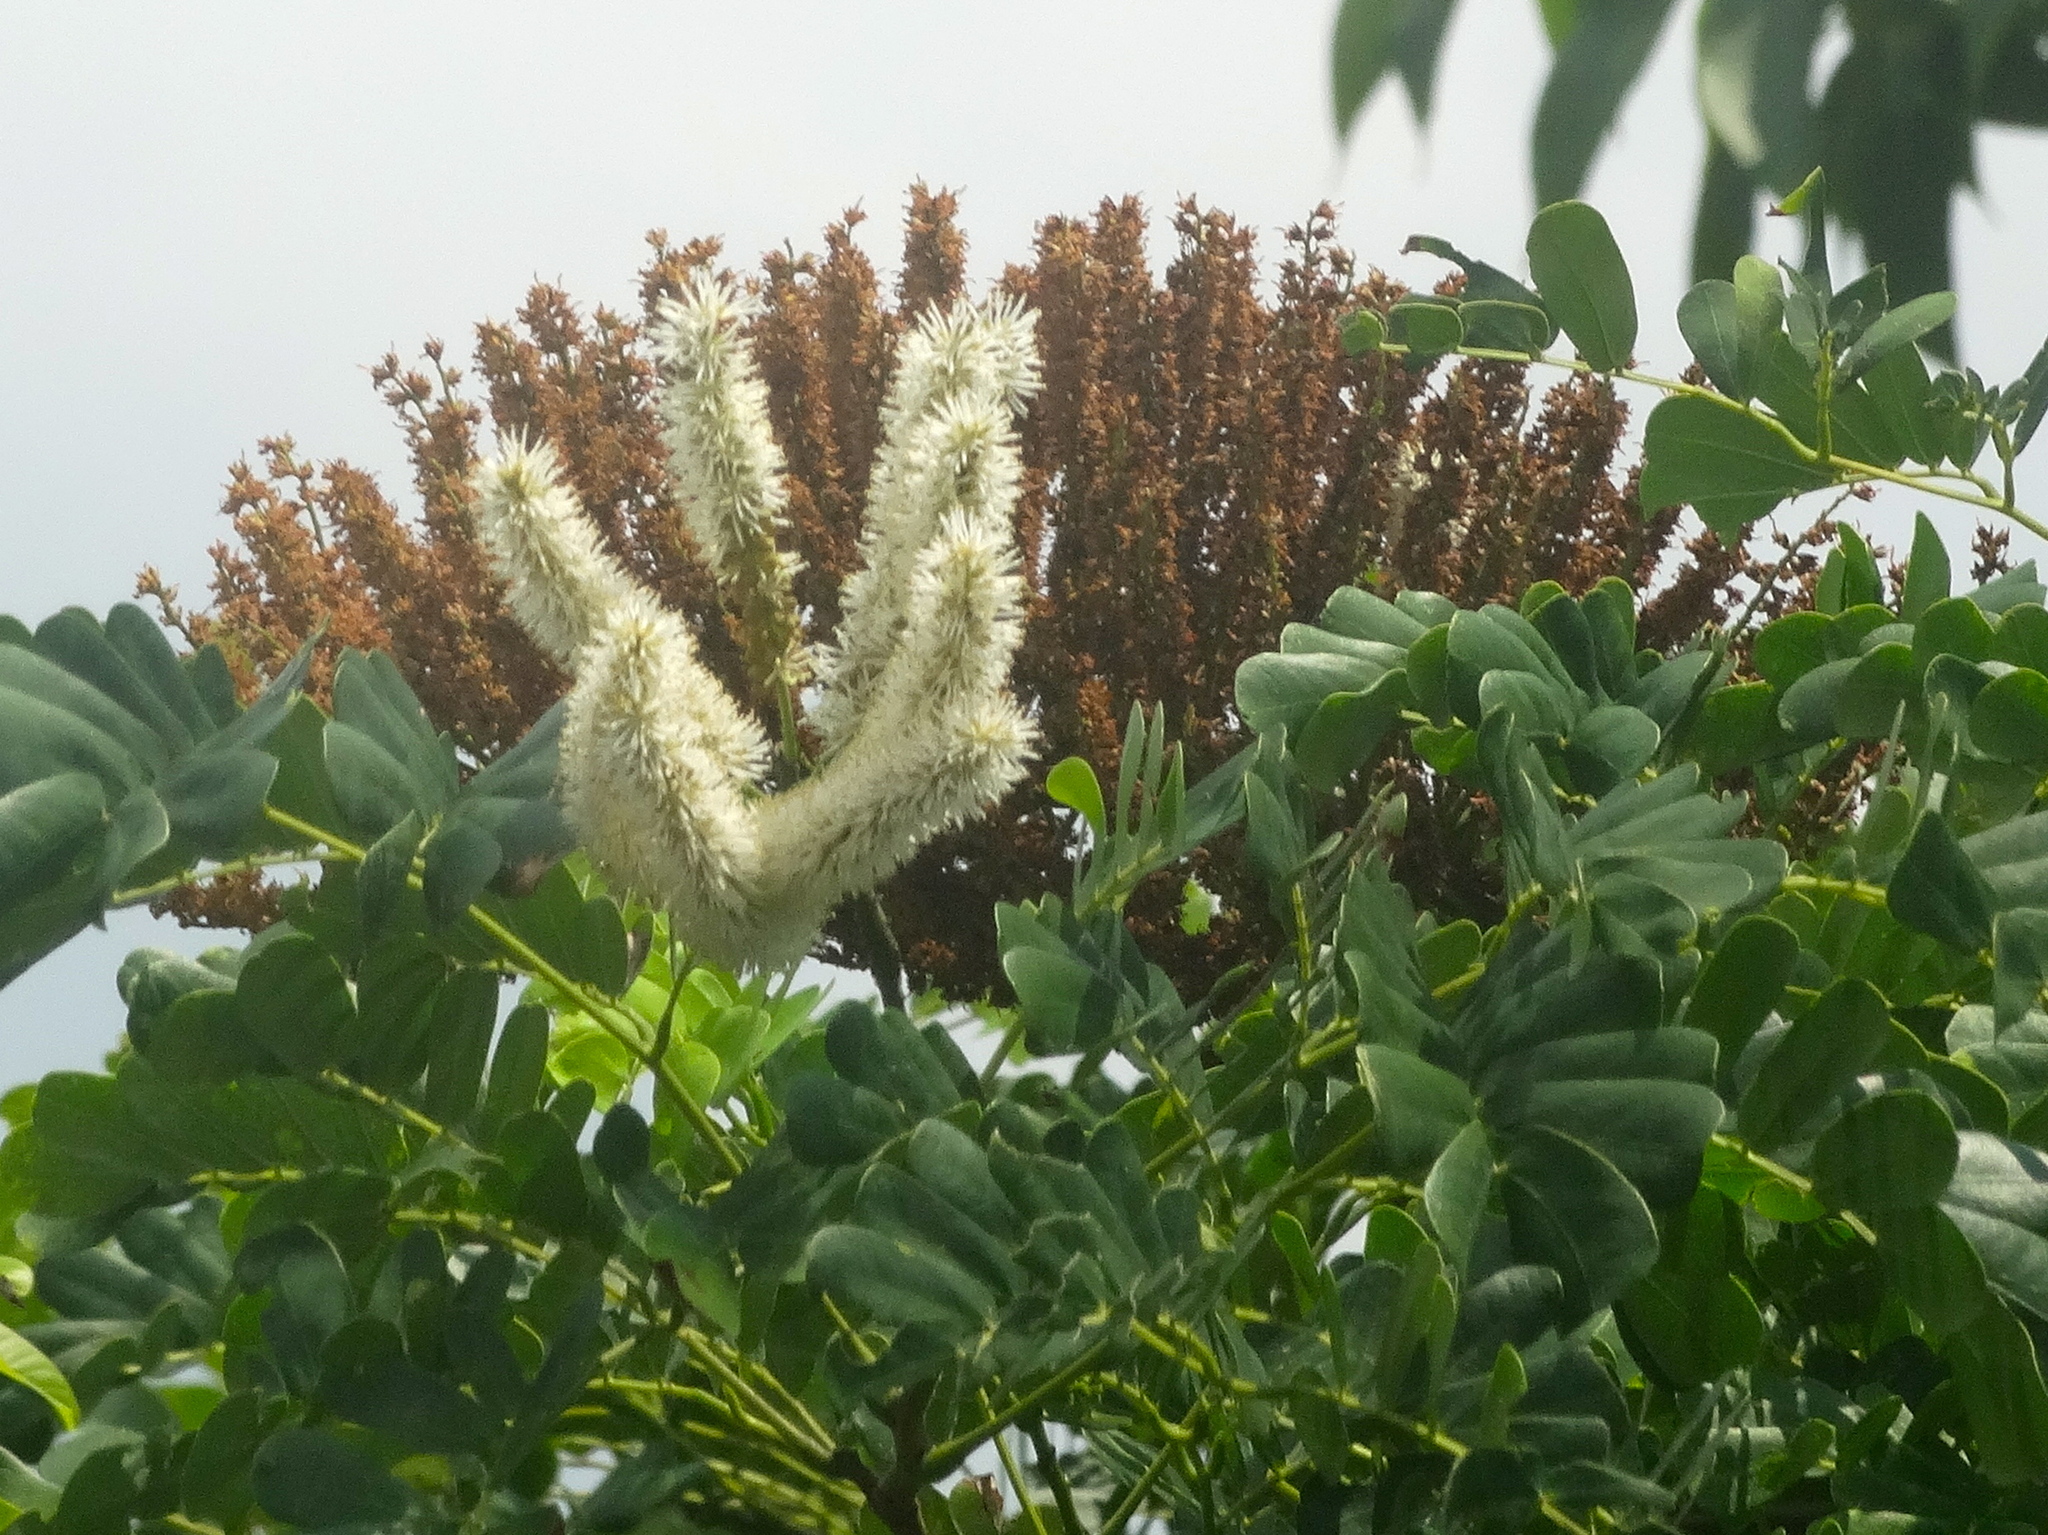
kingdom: Plantae
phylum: Tracheophyta
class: Magnoliopsida
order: Fabales
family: Fabaceae
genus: Entada
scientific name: Entada polystachya
